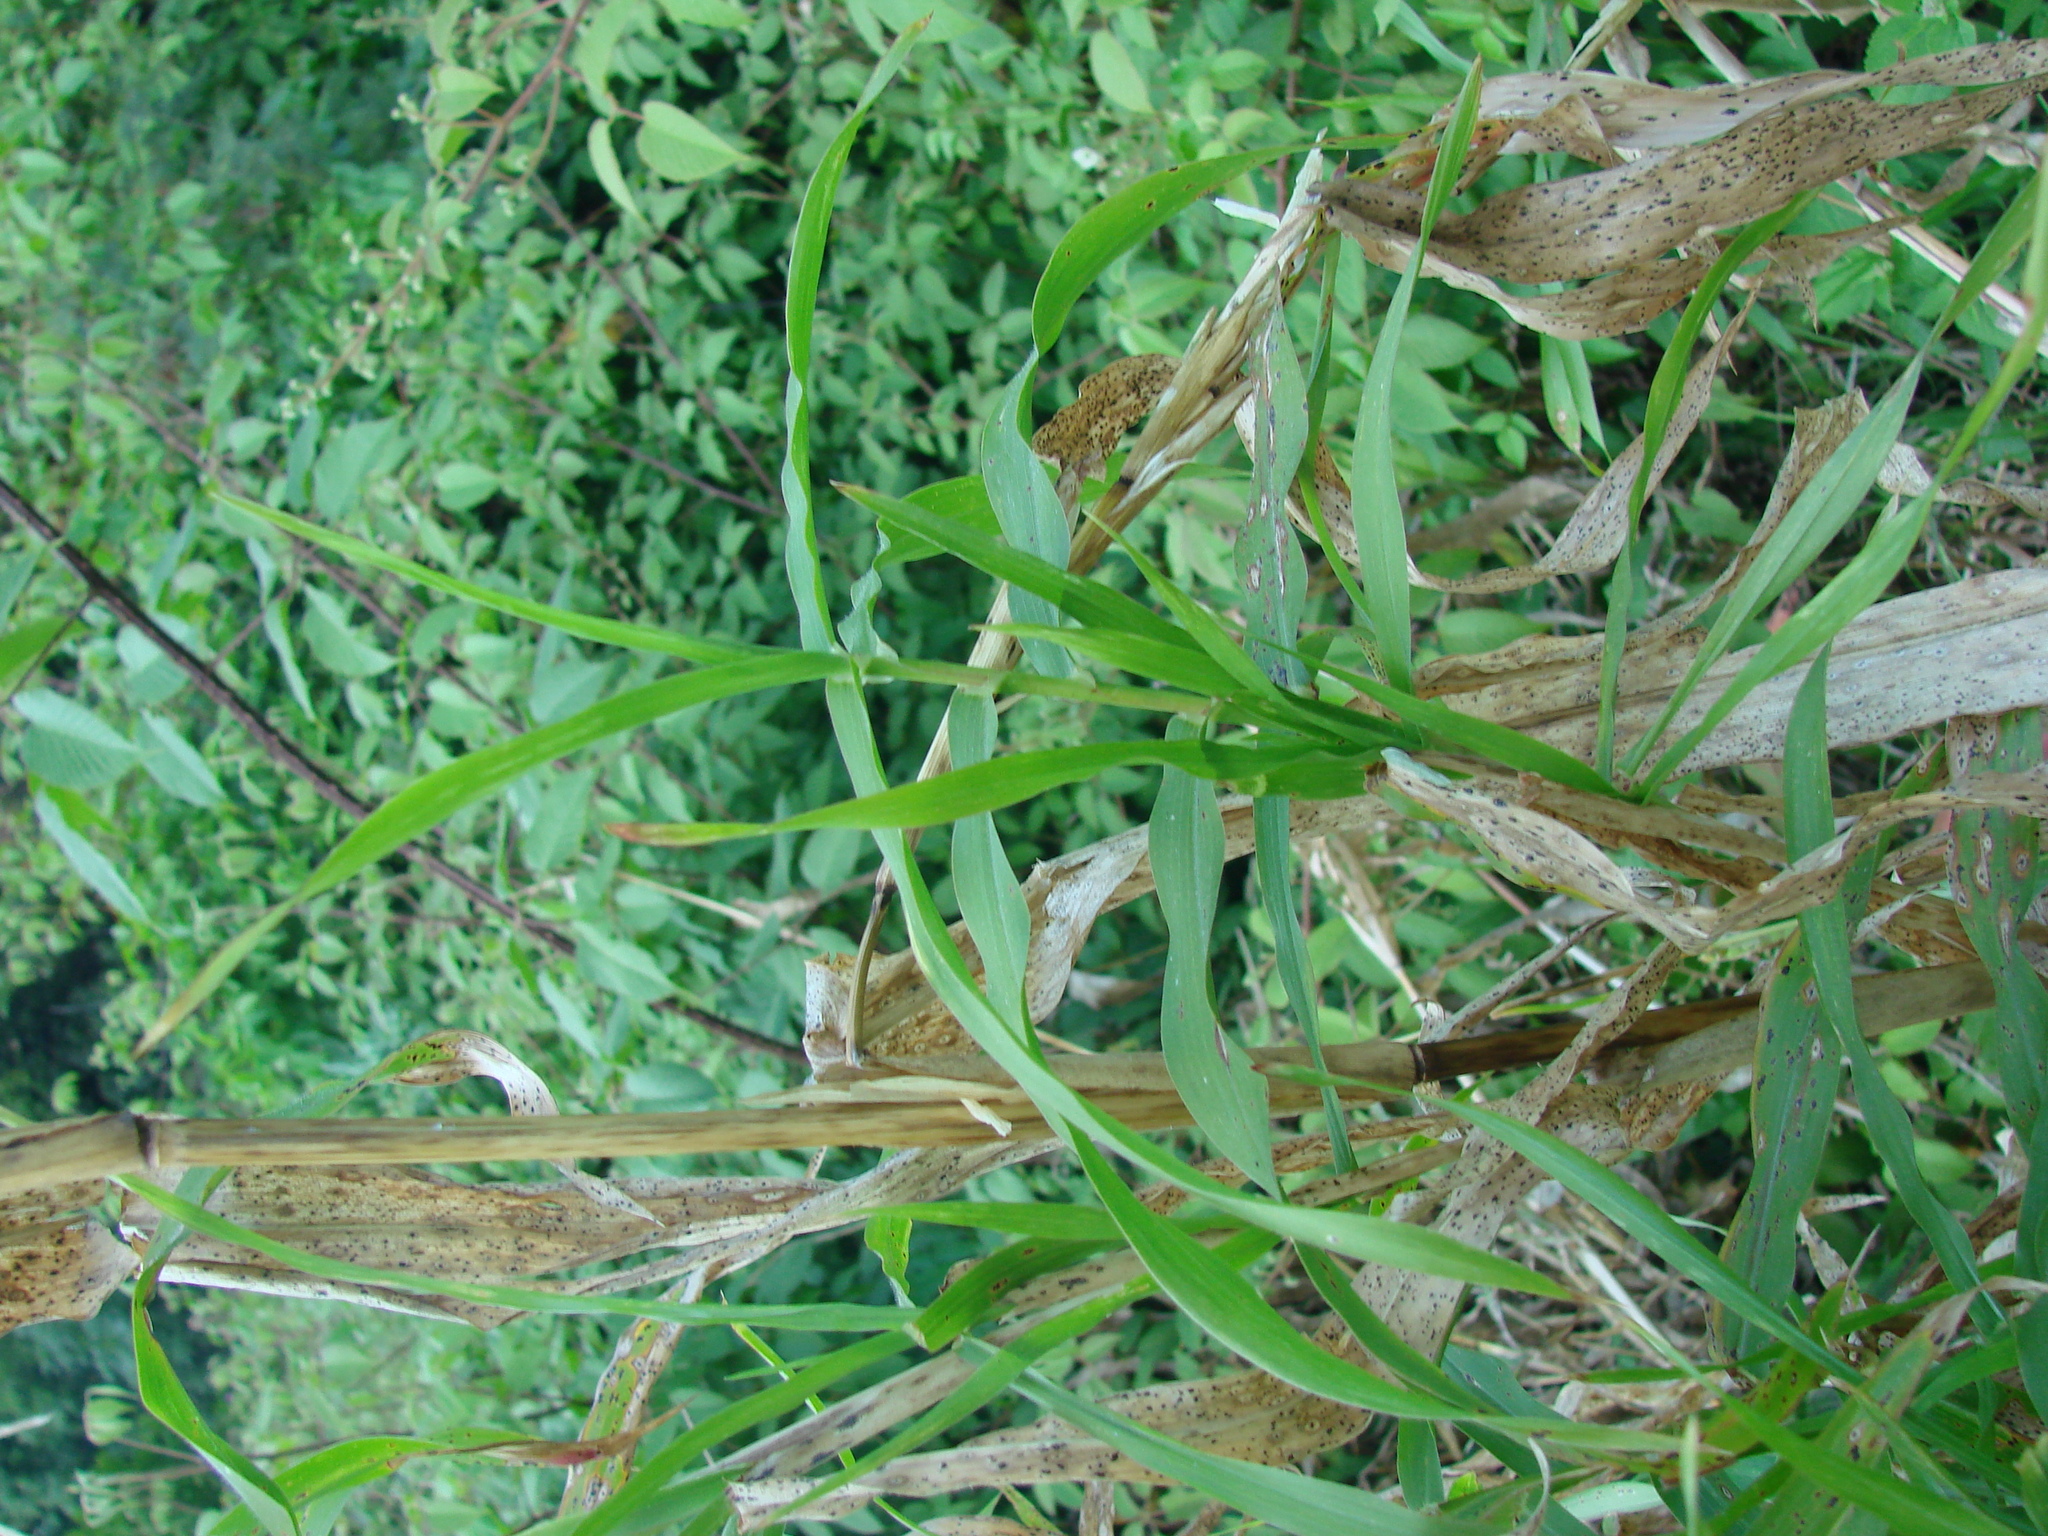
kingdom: Plantae
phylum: Tracheophyta
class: Liliopsida
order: Poales
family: Poaceae
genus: Zea
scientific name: Zea diploperennis
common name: Diploperennial teosinte
